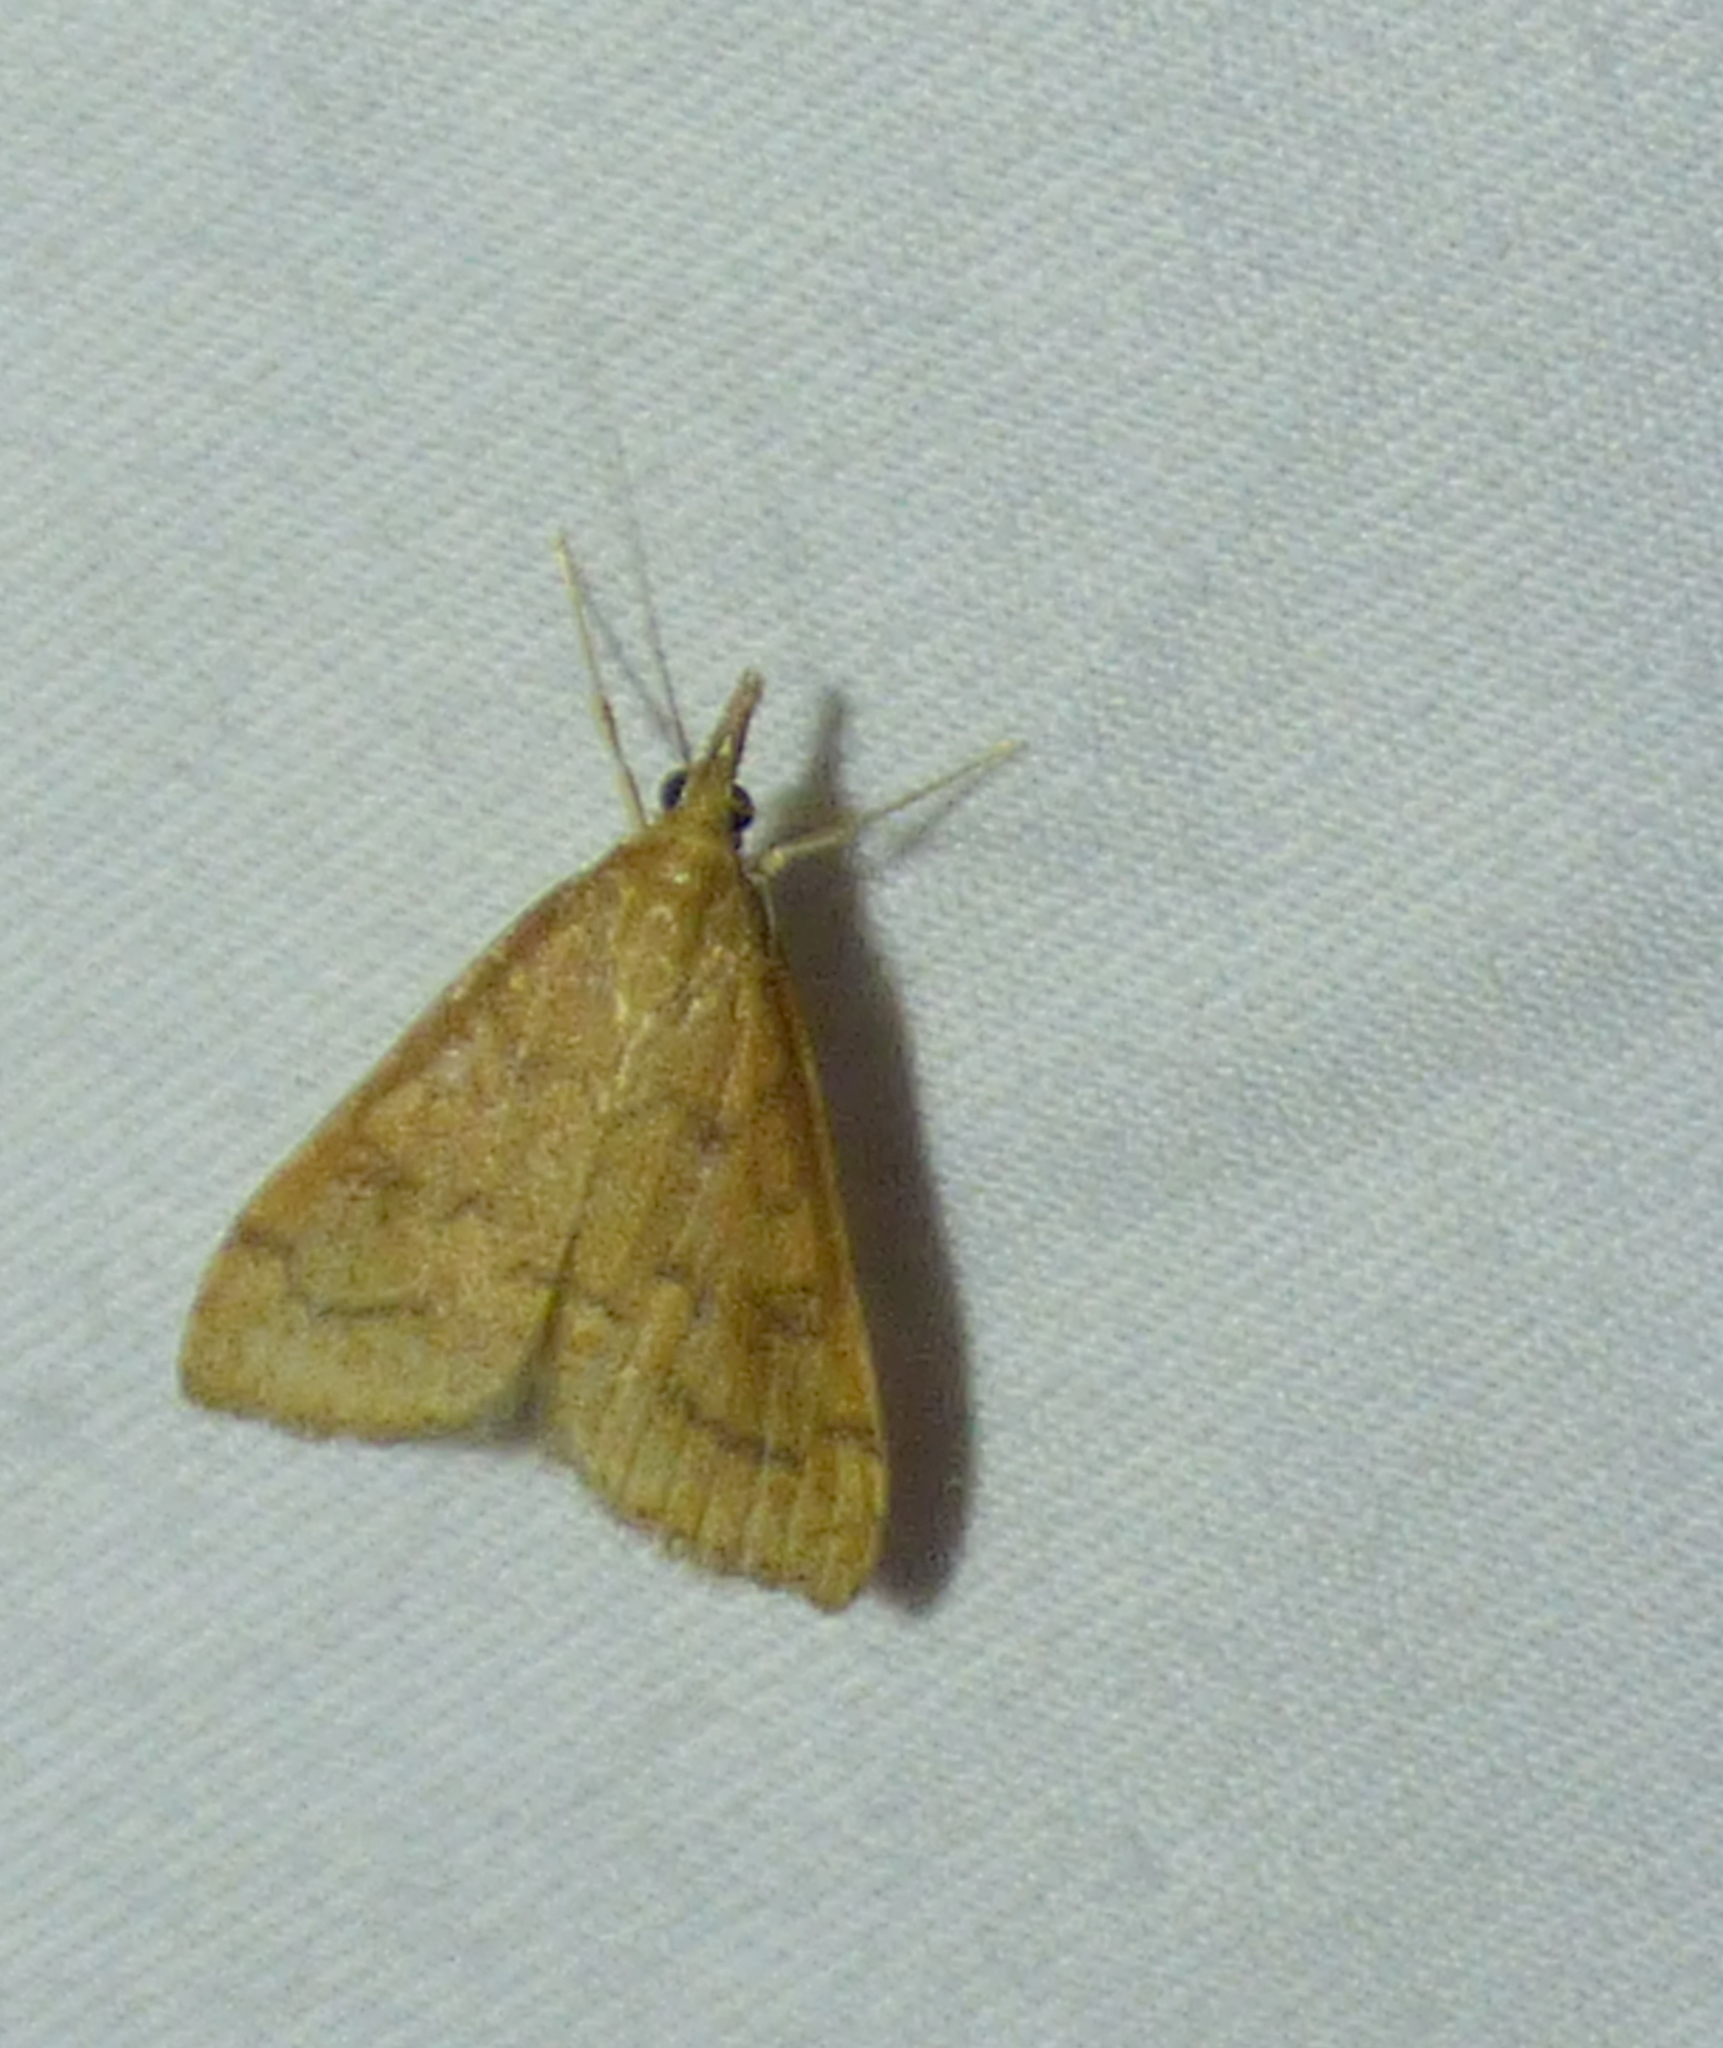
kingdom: Animalia
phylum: Arthropoda
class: Insecta
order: Lepidoptera
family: Crambidae
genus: Udea
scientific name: Udea rubigalis
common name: Celery leaftier moth
